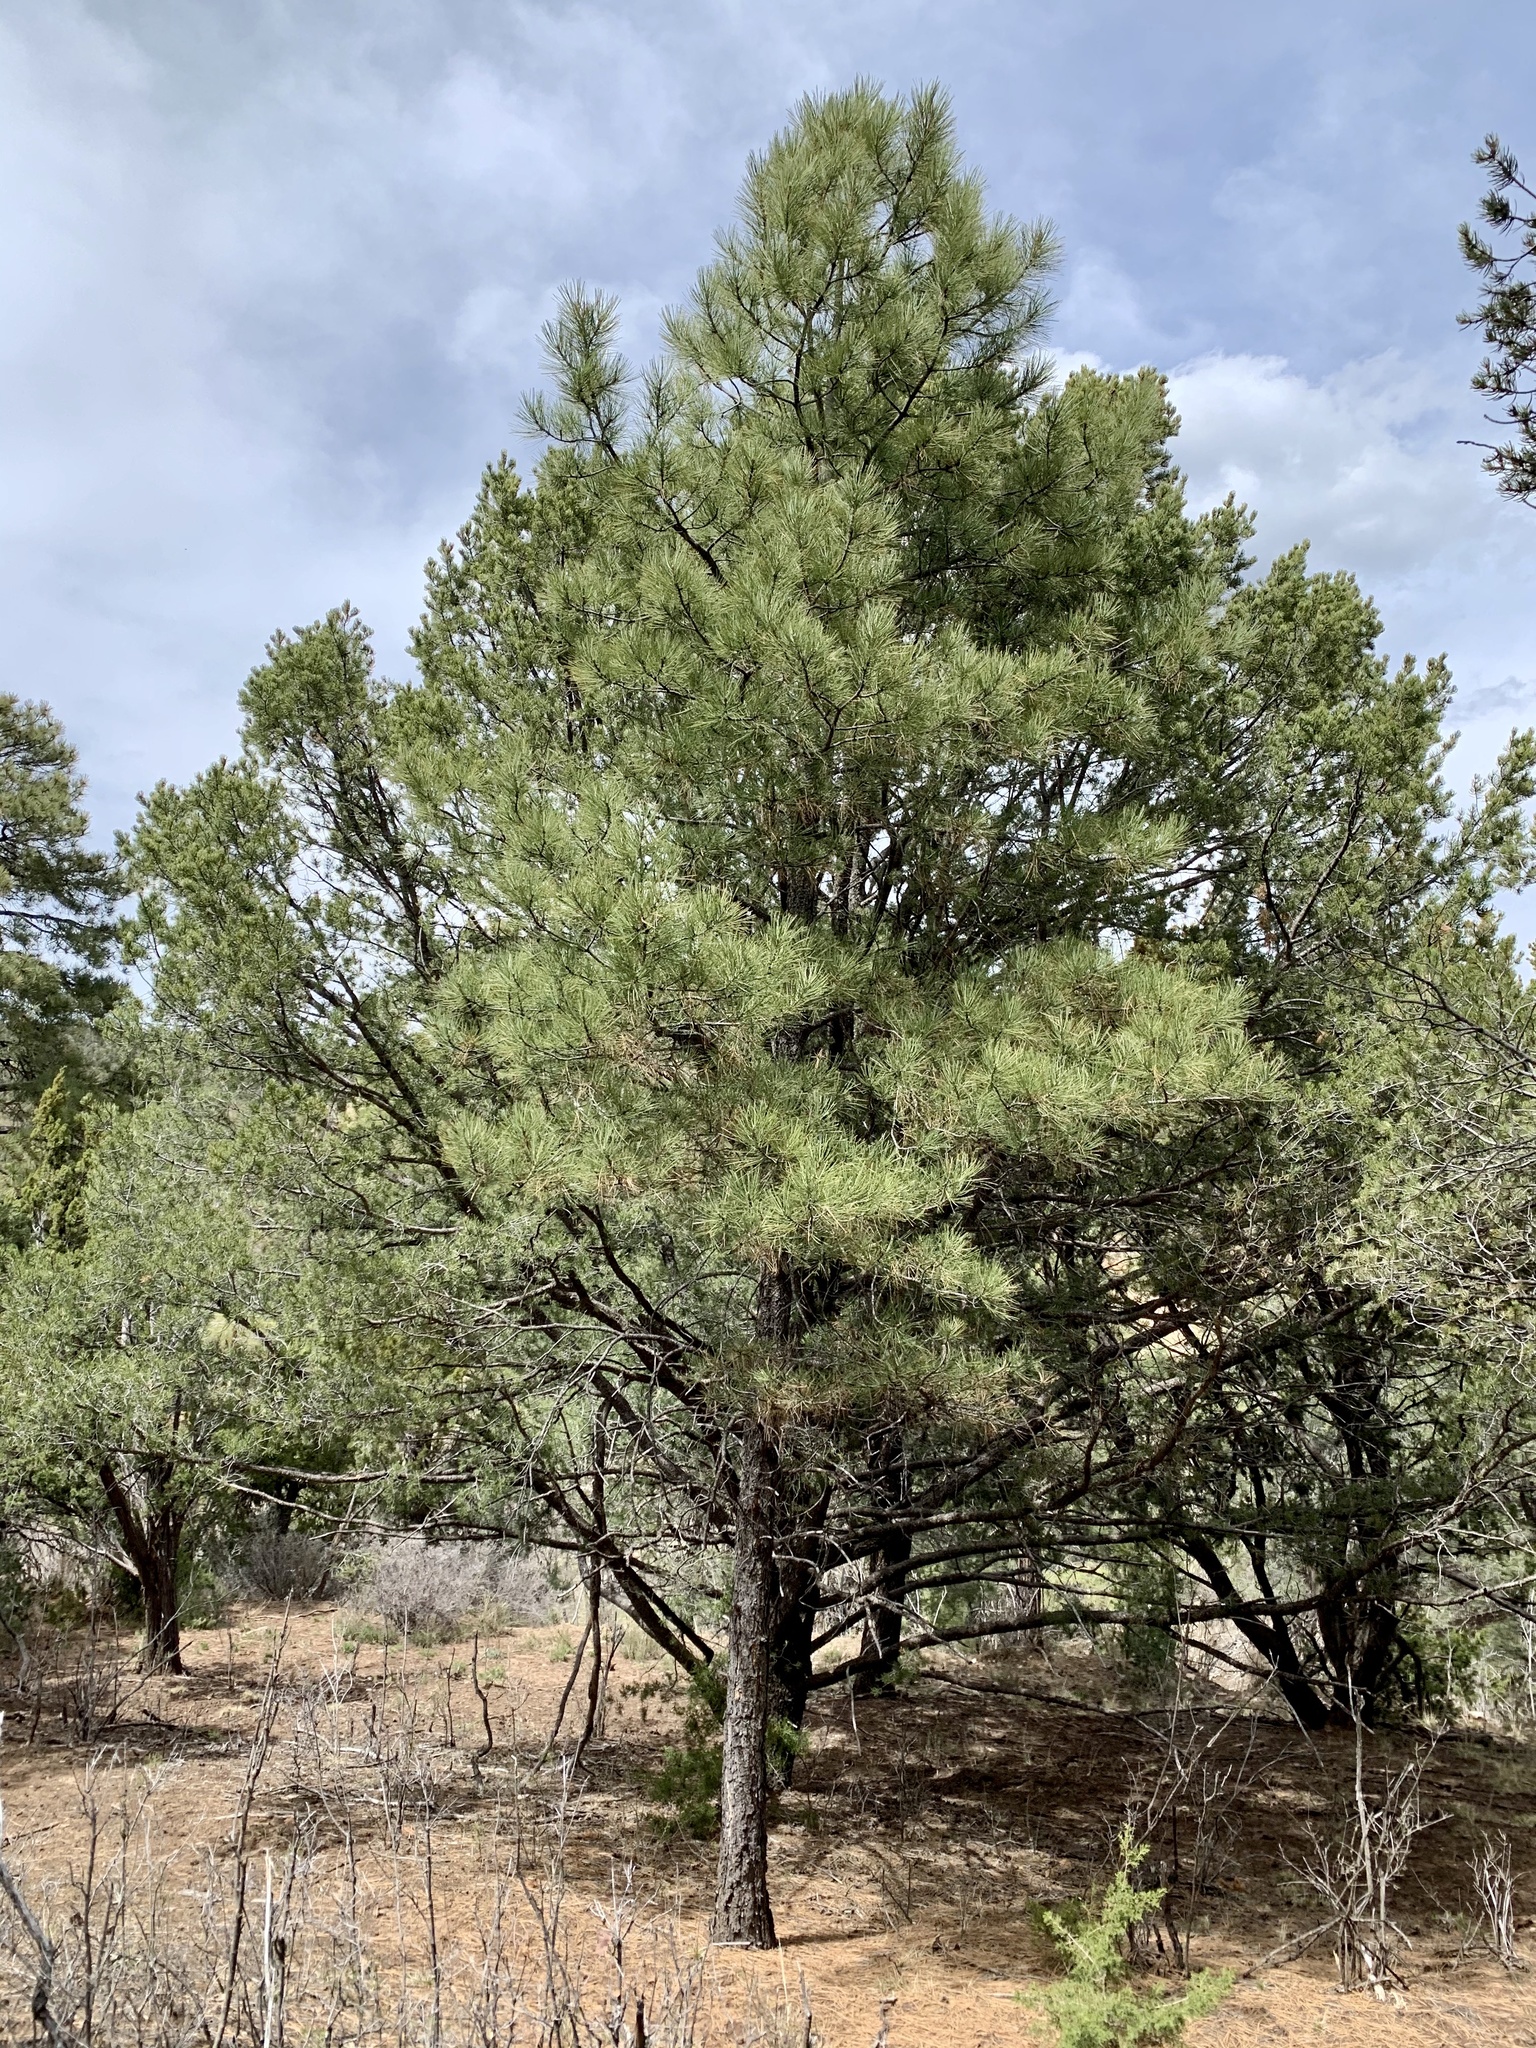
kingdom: Plantae
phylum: Tracheophyta
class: Pinopsida
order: Pinales
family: Pinaceae
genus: Pinus
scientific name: Pinus ponderosa
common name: Western yellow-pine
